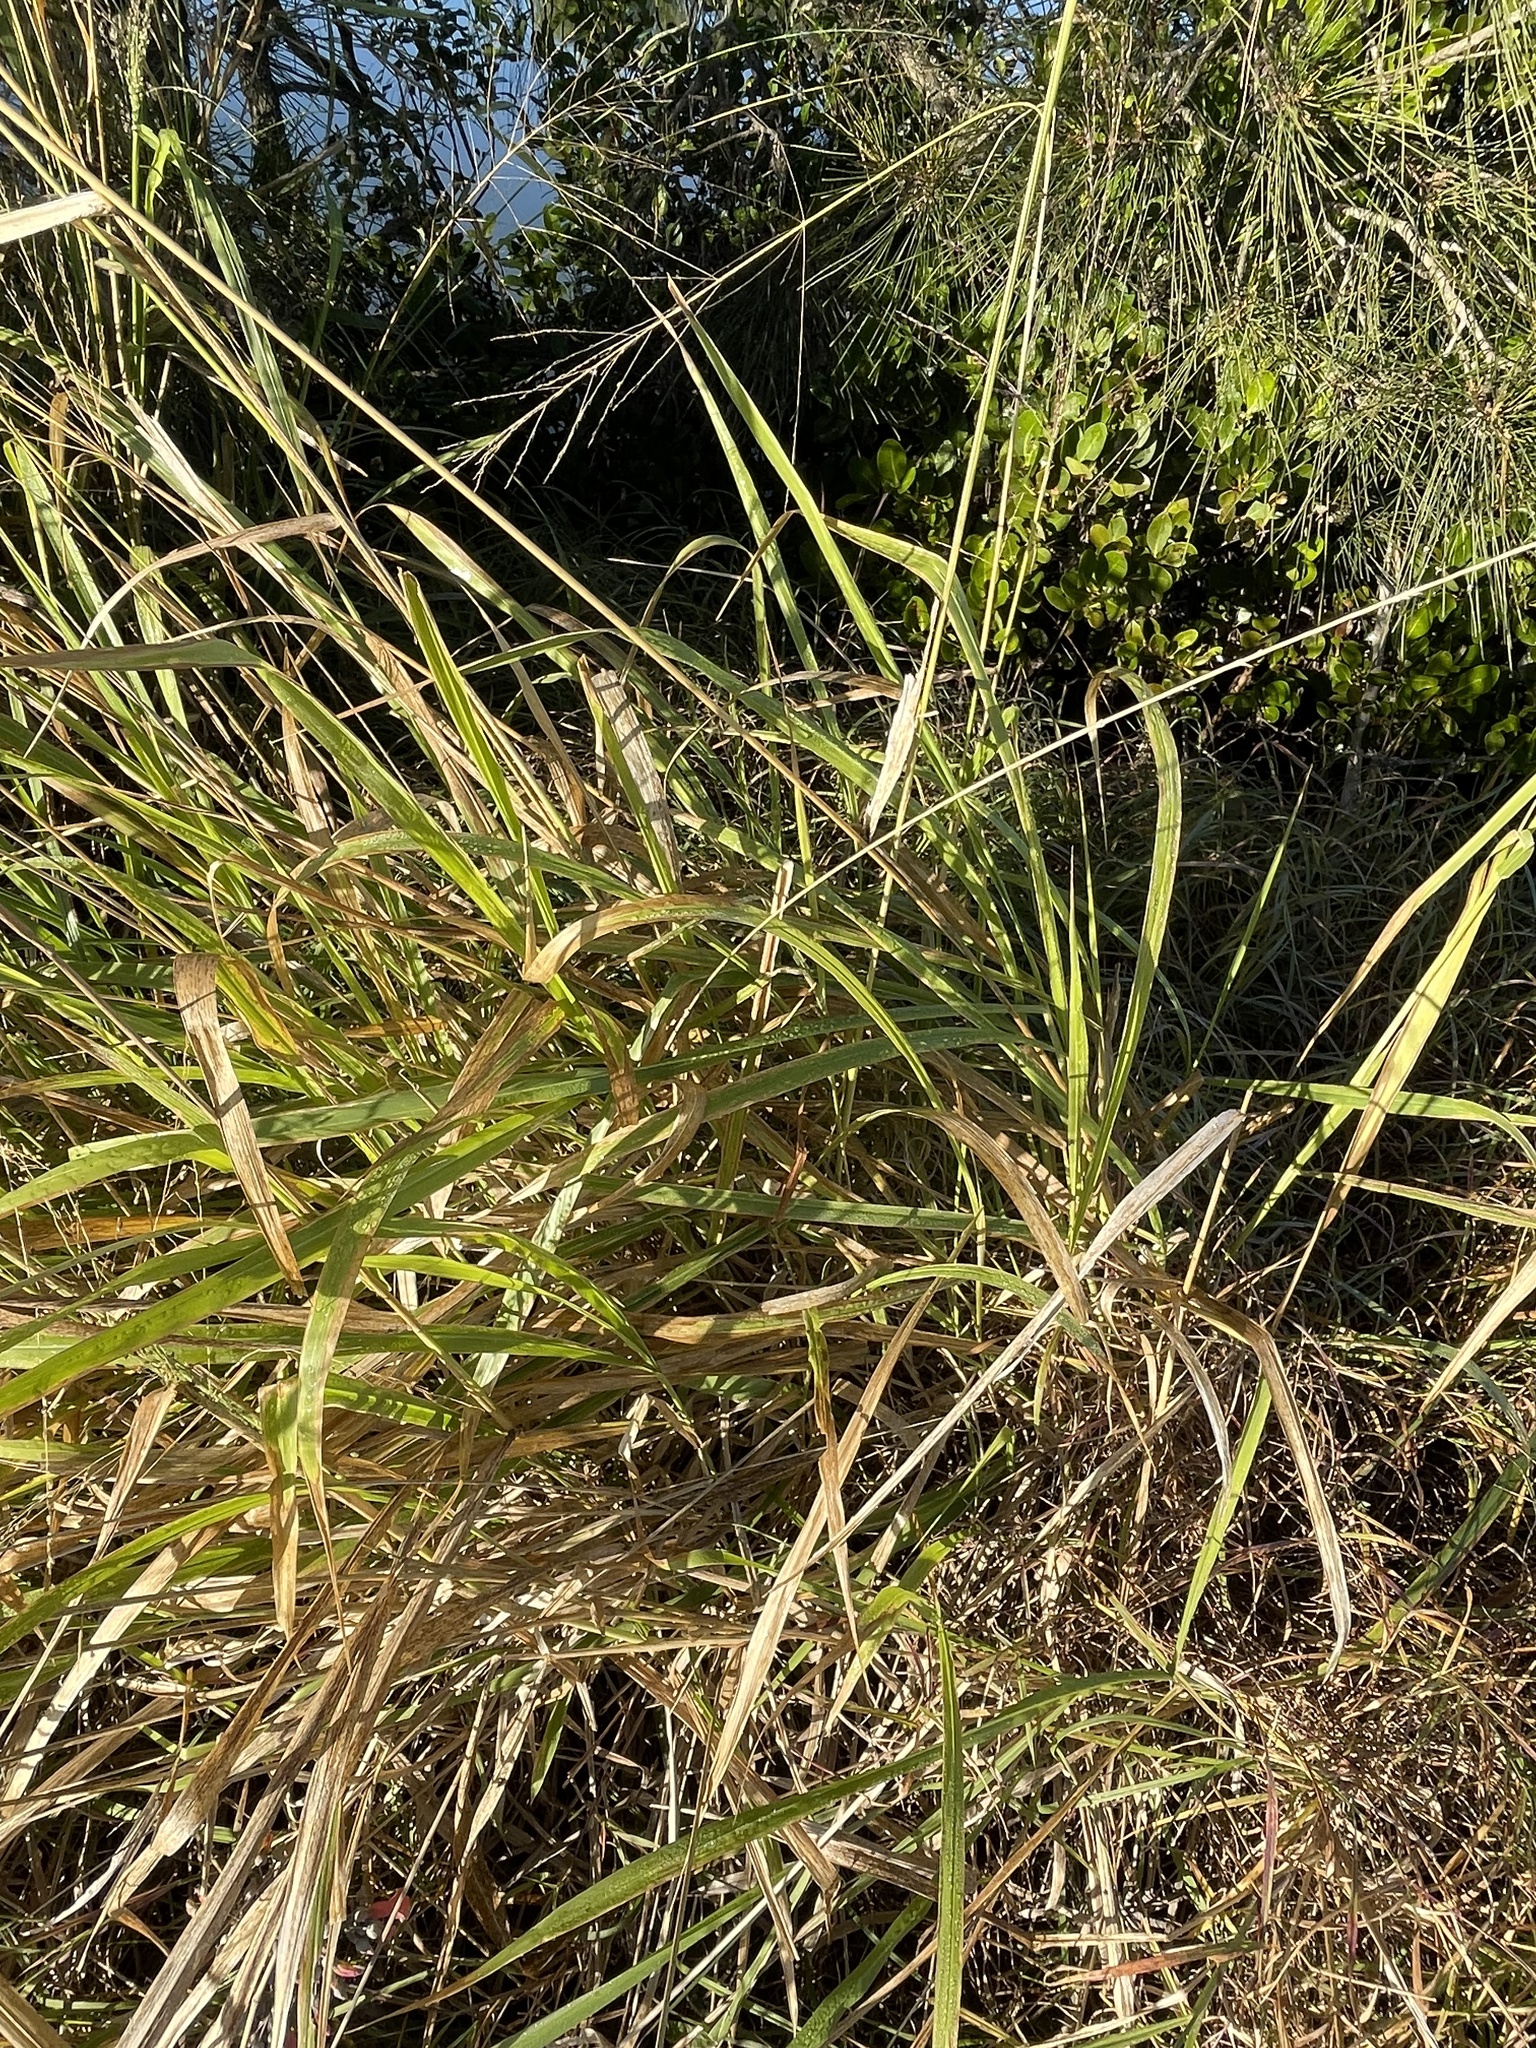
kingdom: Plantae
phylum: Tracheophyta
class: Liliopsida
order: Poales
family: Poaceae
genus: Megathyrsus
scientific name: Megathyrsus maximus
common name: Guineagrass
